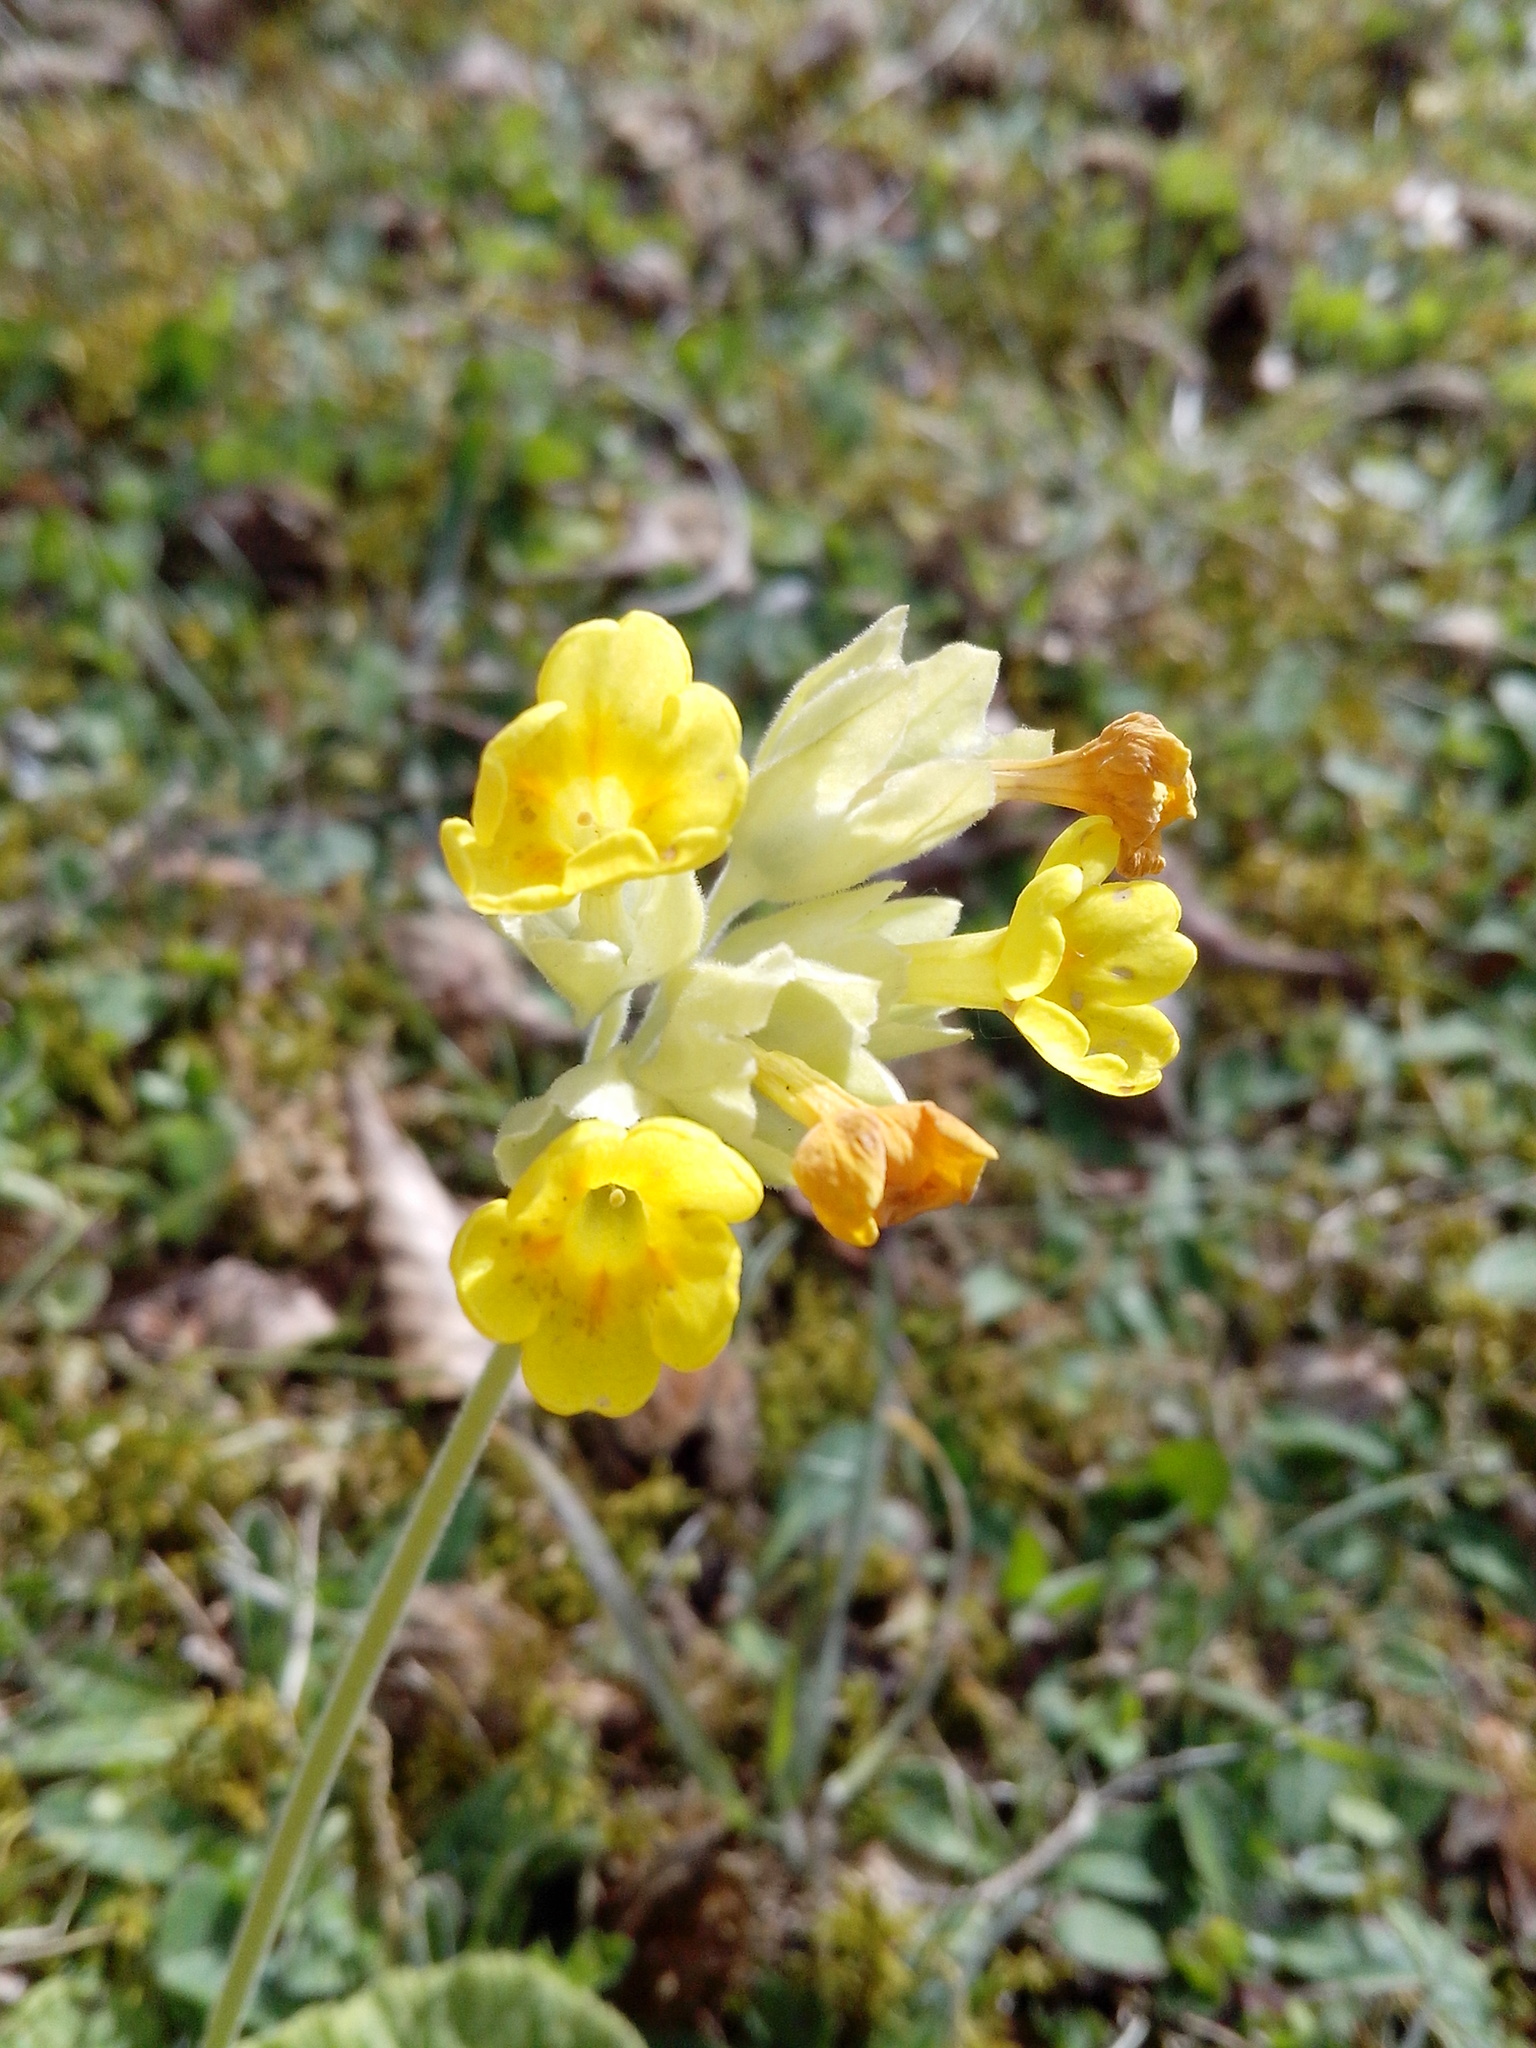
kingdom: Plantae
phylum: Tracheophyta
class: Magnoliopsida
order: Ericales
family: Primulaceae
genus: Primula
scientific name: Primula veris
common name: Cowslip
